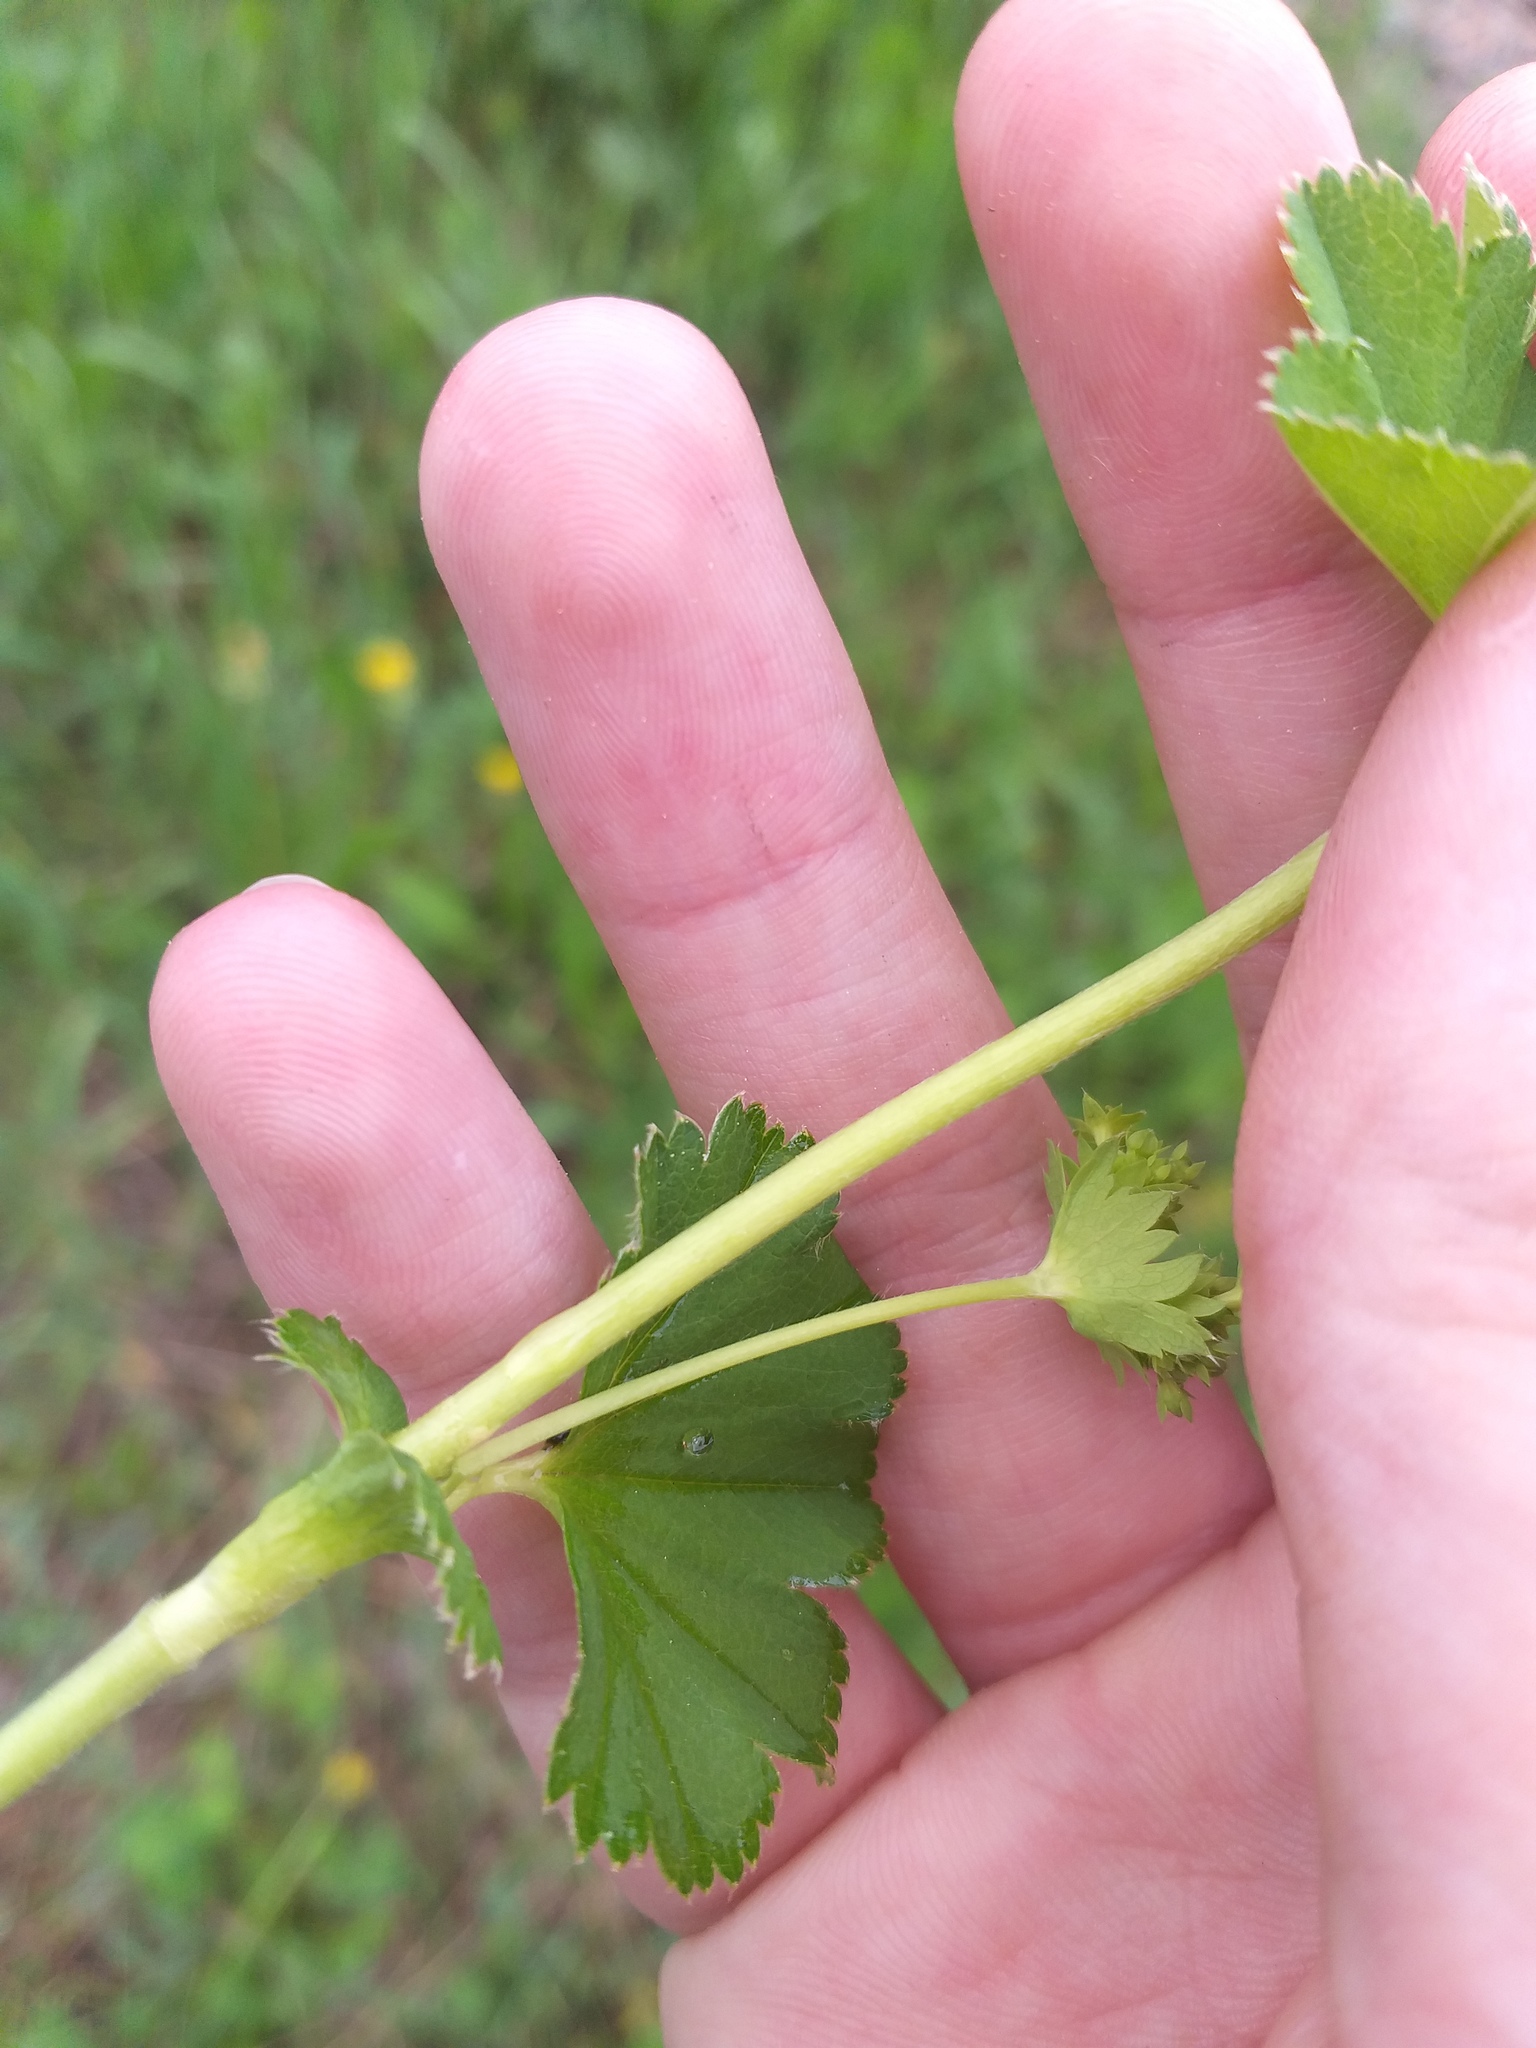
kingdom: Plantae
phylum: Tracheophyta
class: Magnoliopsida
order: Rosales
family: Rosaceae
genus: Alchemilla
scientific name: Alchemilla baltica
